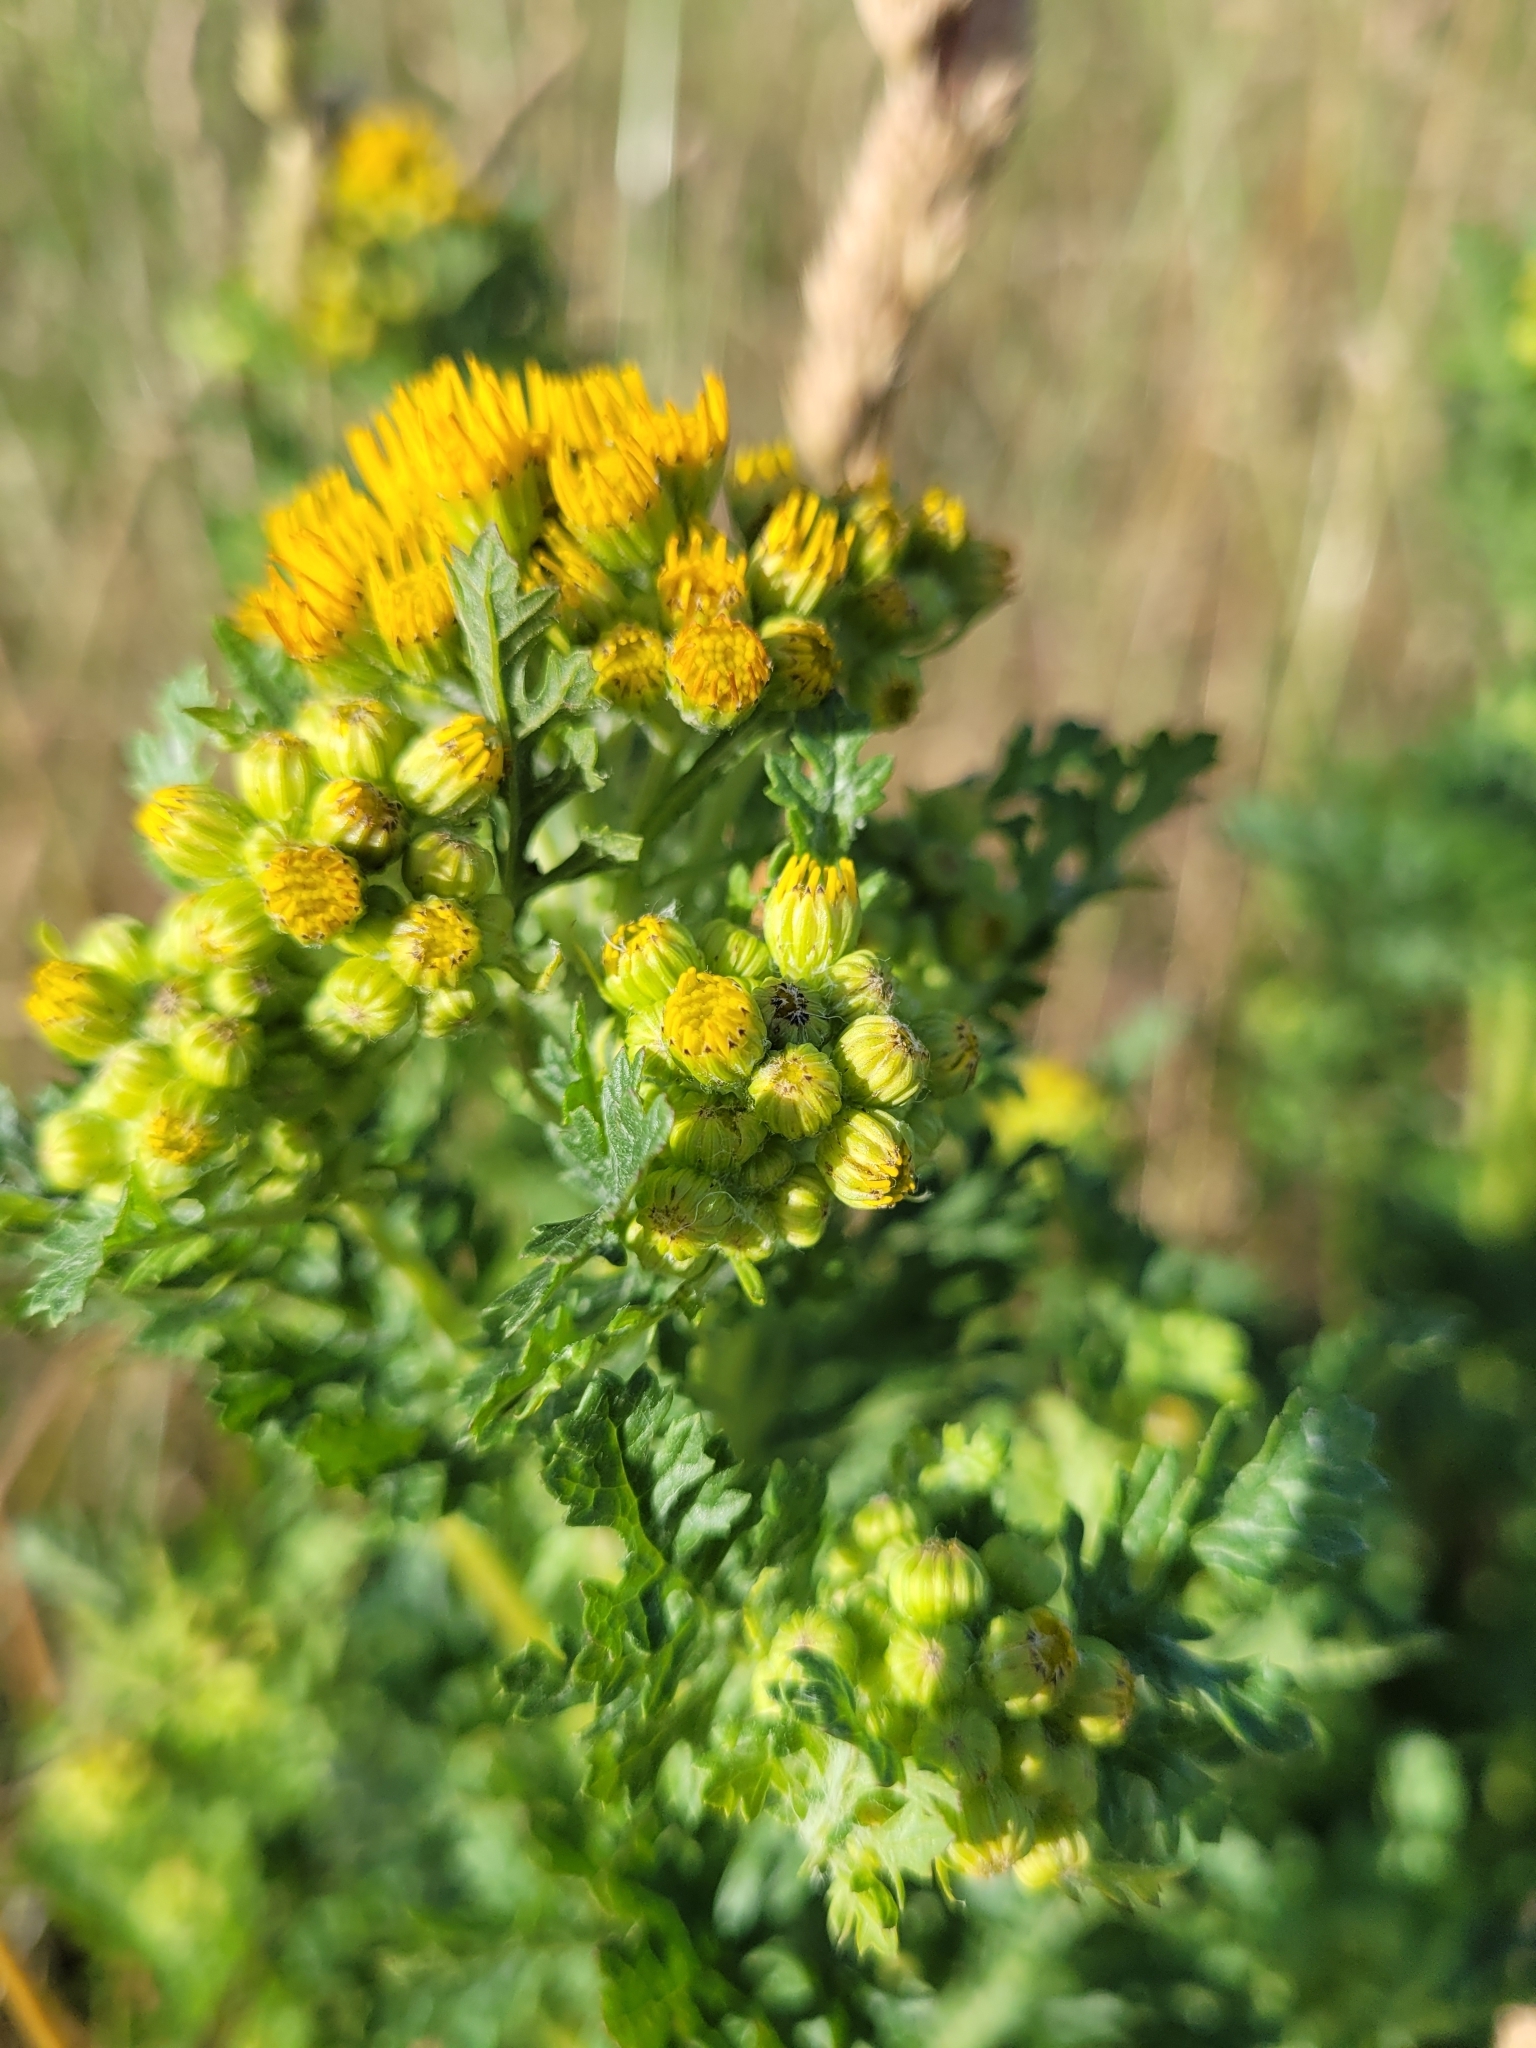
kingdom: Plantae
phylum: Tracheophyta
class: Magnoliopsida
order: Asterales
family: Asteraceae
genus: Jacobaea
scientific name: Jacobaea vulgaris
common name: Stinking willie
